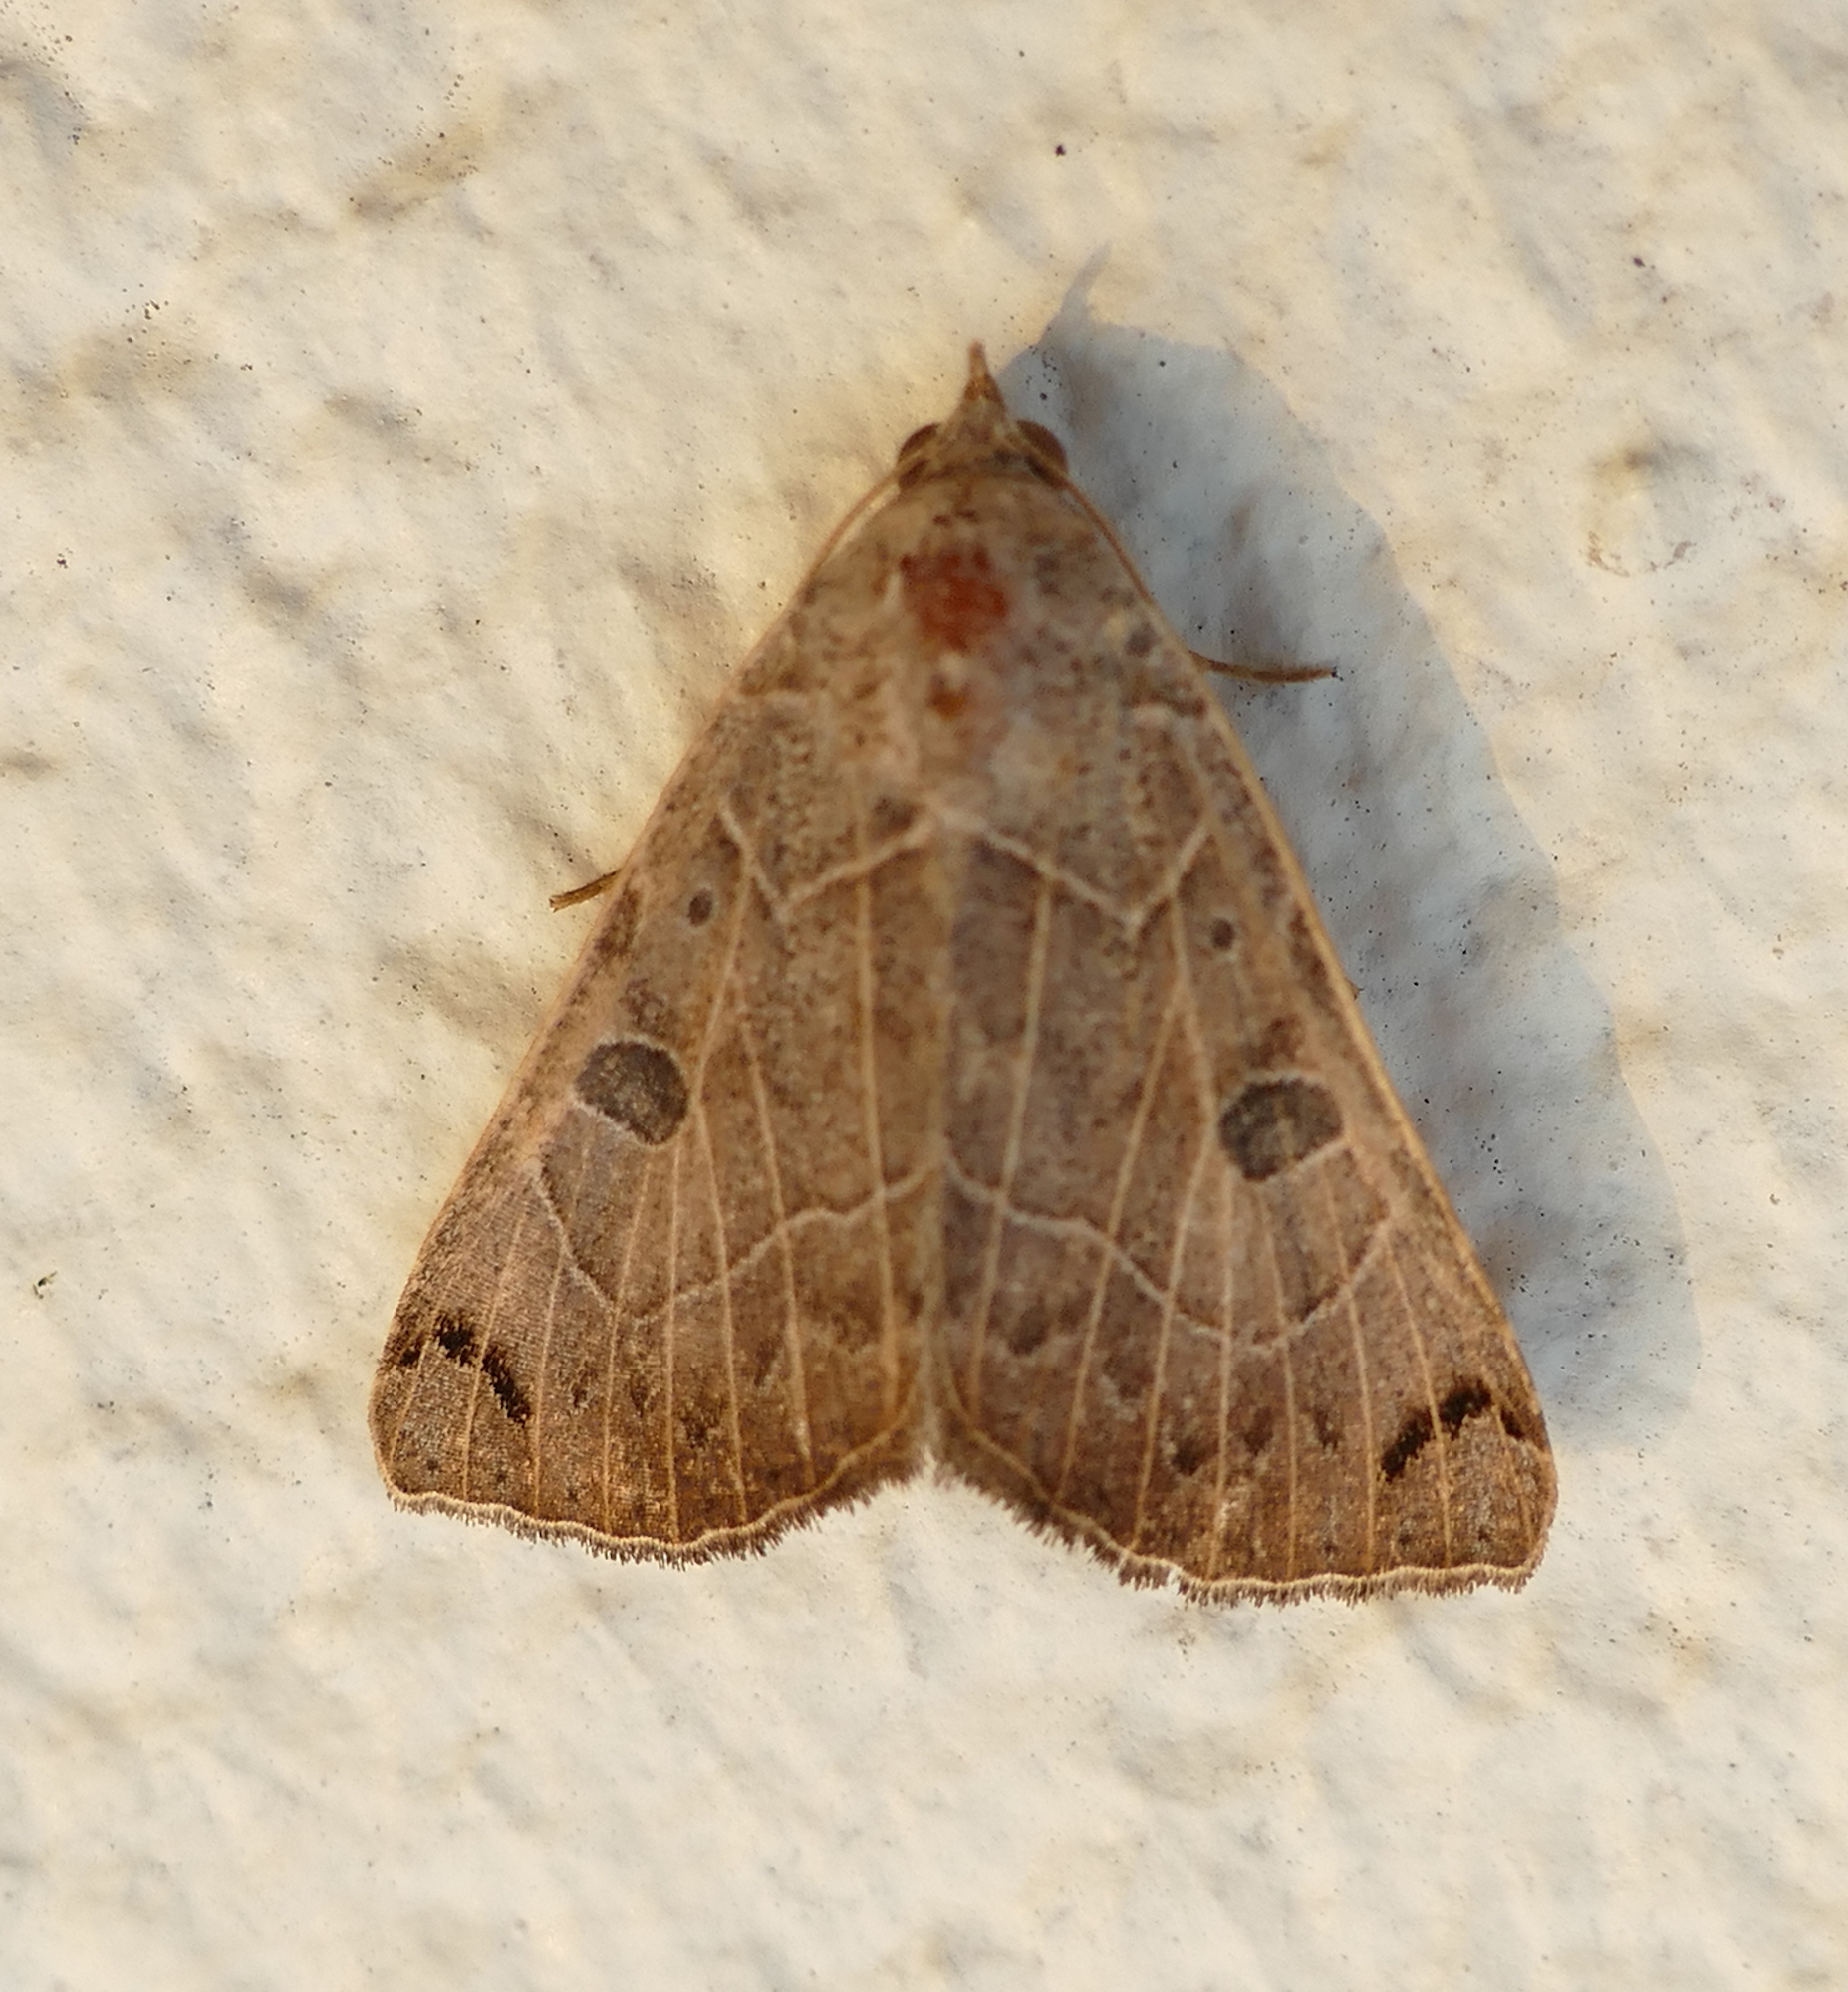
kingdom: Animalia
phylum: Arthropoda
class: Insecta
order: Lepidoptera
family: Erebidae
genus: Isogona
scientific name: Isogona scindens
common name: Owlet moth
